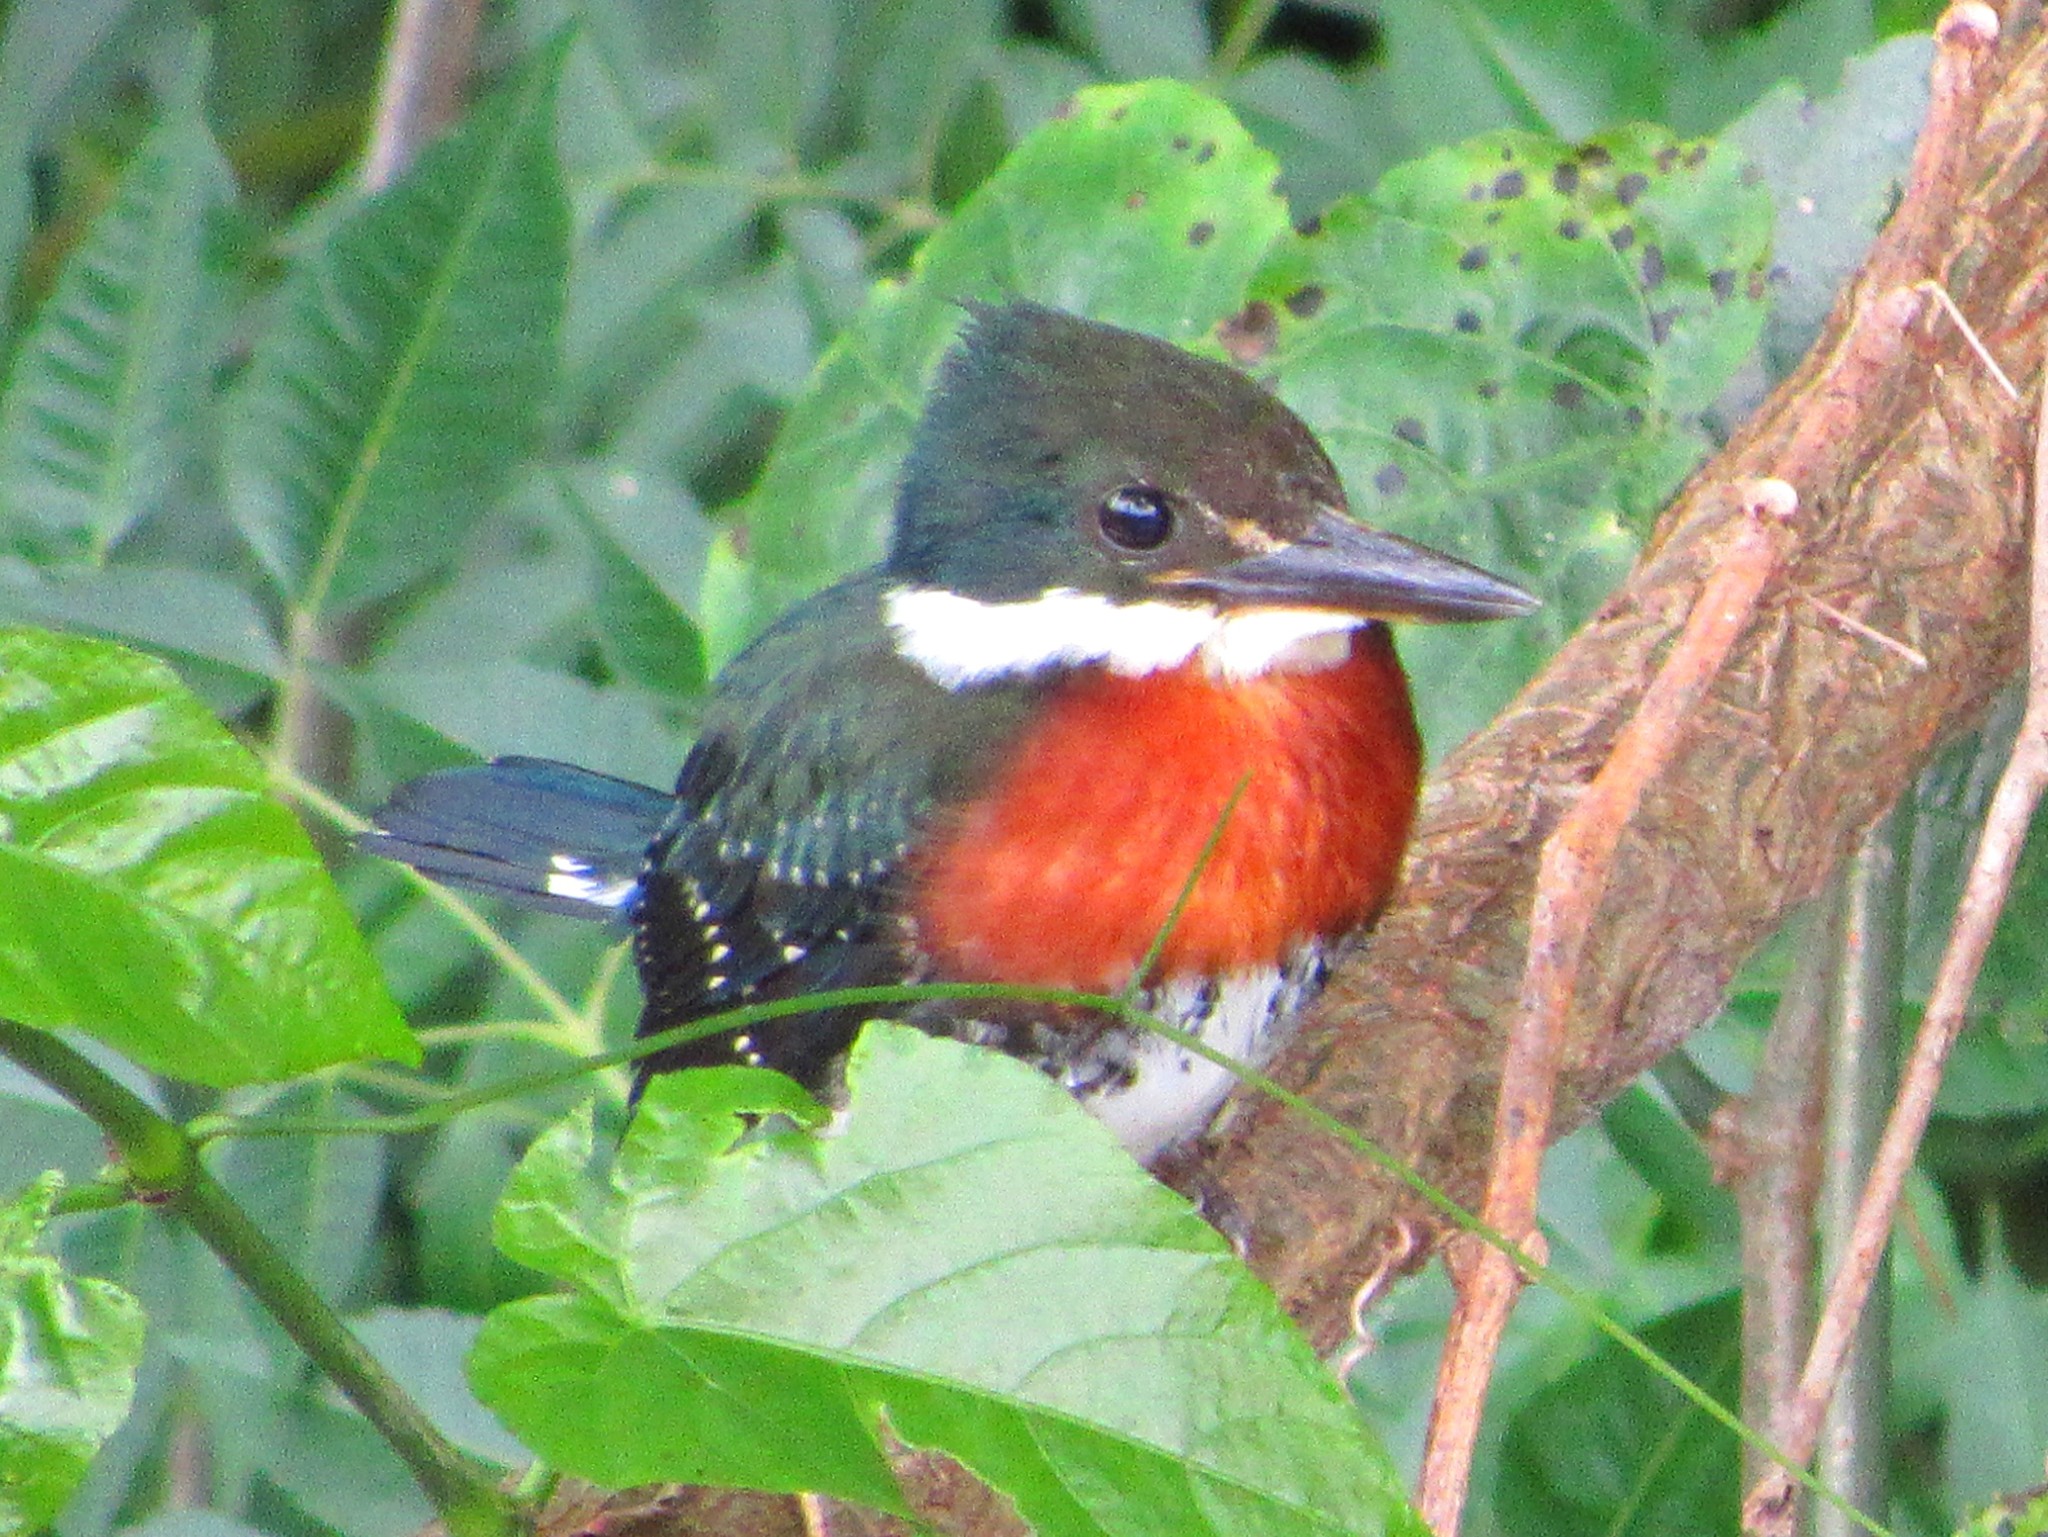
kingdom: Animalia
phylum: Chordata
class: Aves
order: Coraciiformes
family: Alcedinidae
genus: Chloroceryle
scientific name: Chloroceryle americana
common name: Green kingfisher
